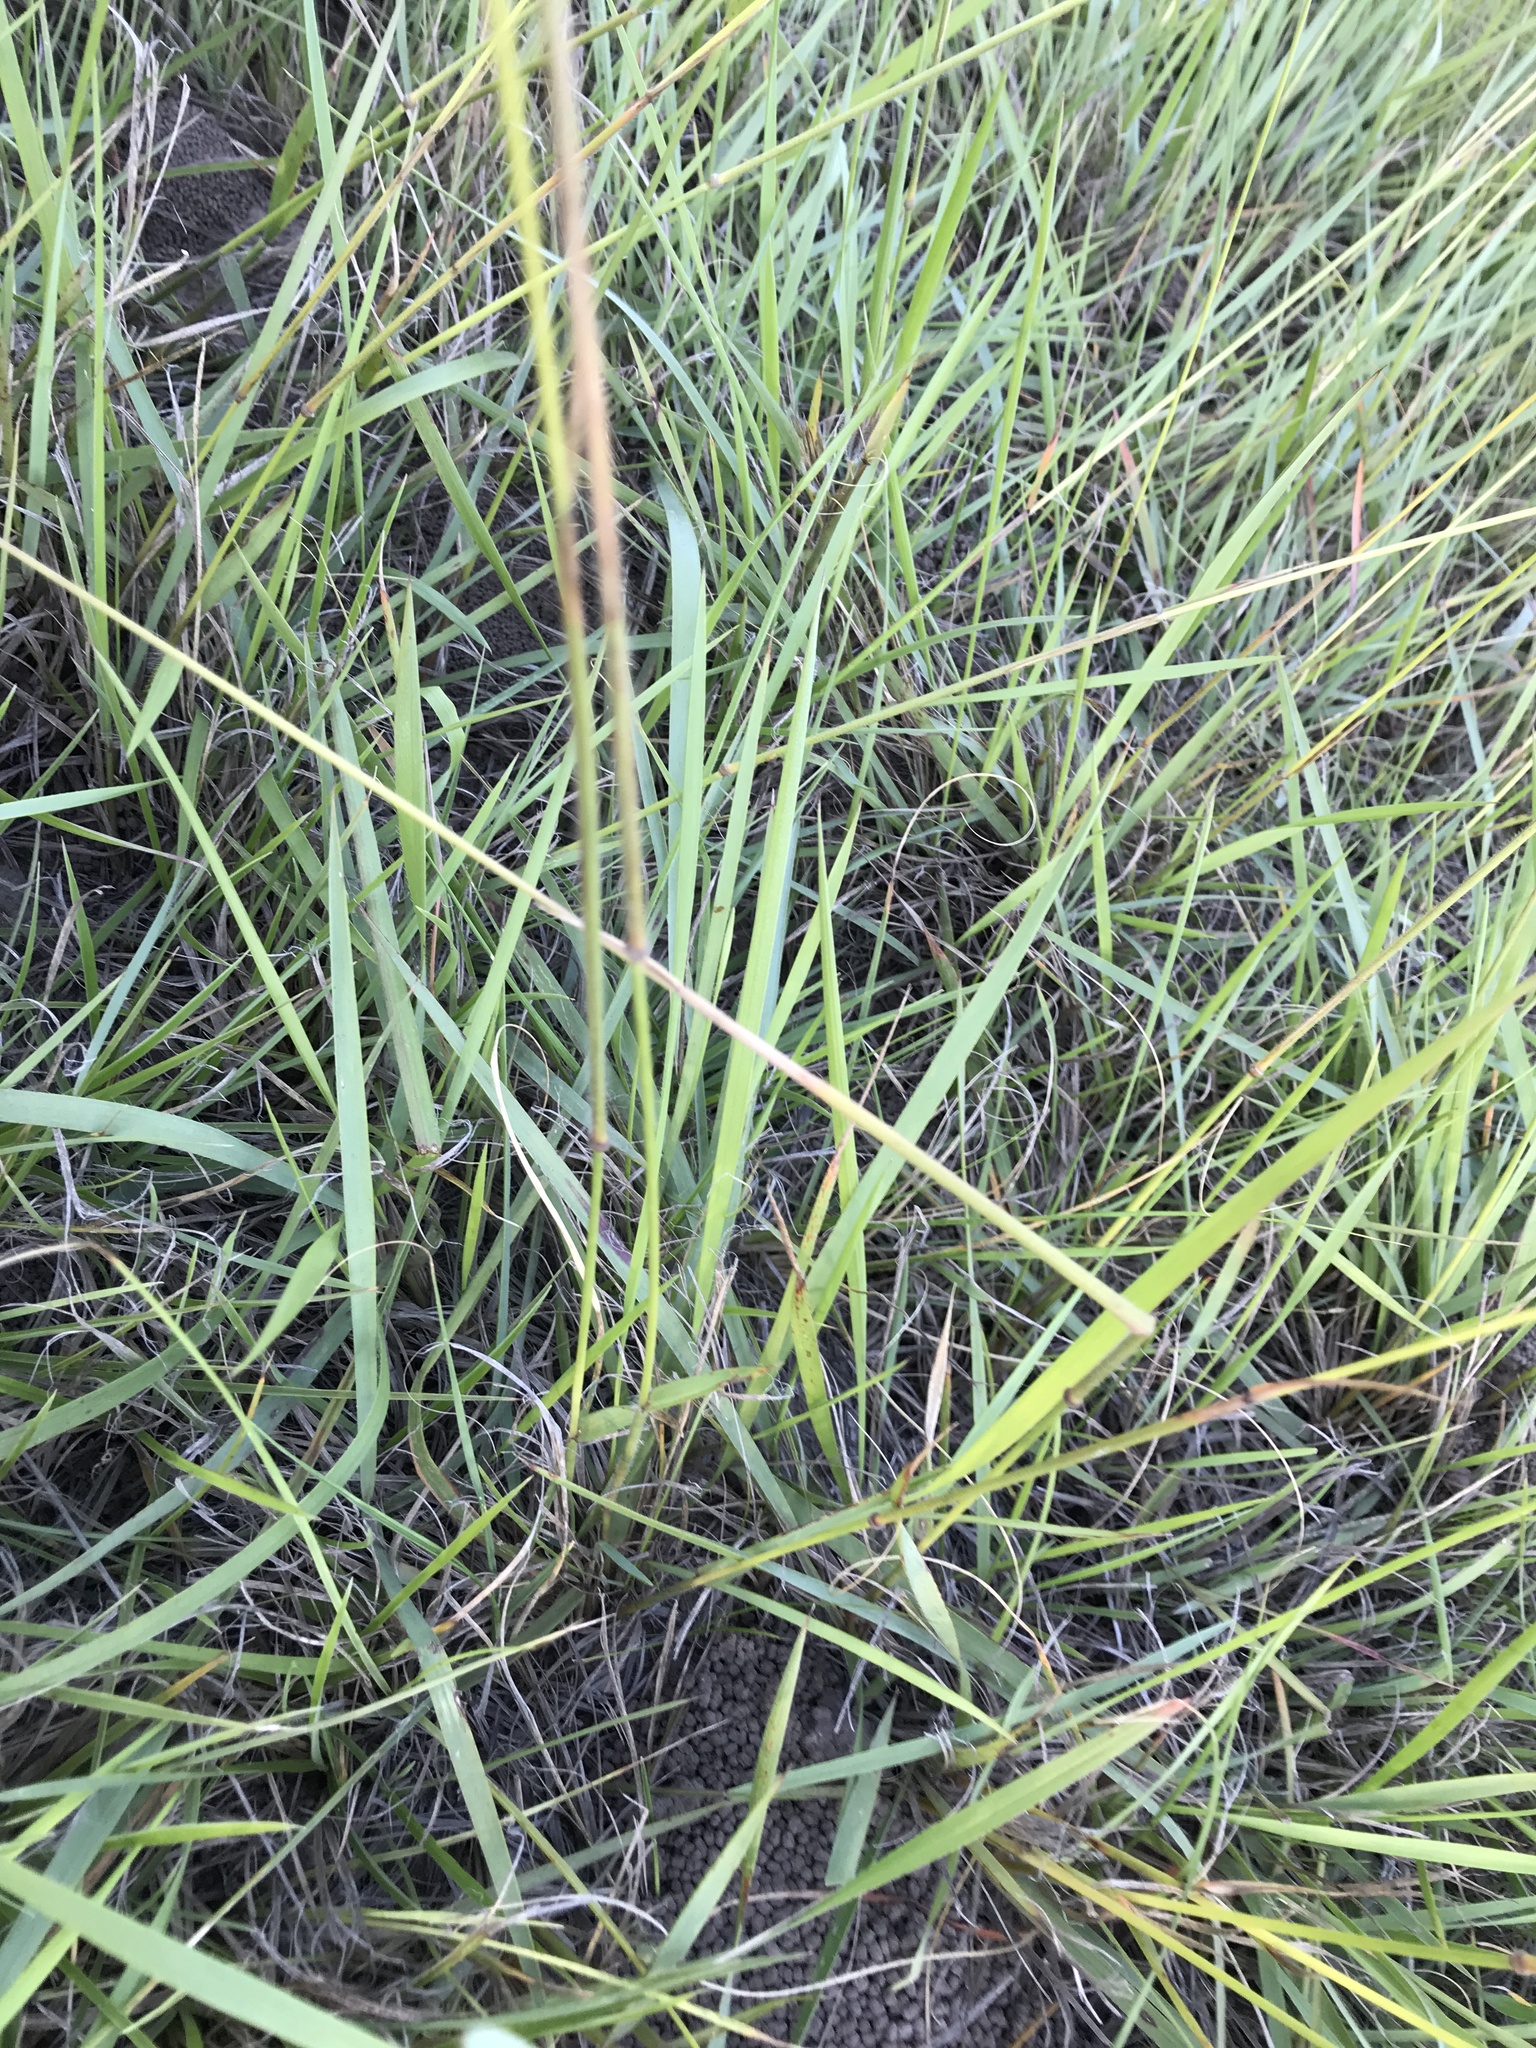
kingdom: Plantae
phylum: Tracheophyta
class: Liliopsida
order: Poales
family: Poaceae
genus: Tristachya
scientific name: Tristachya leucothrix
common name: Trident grass
